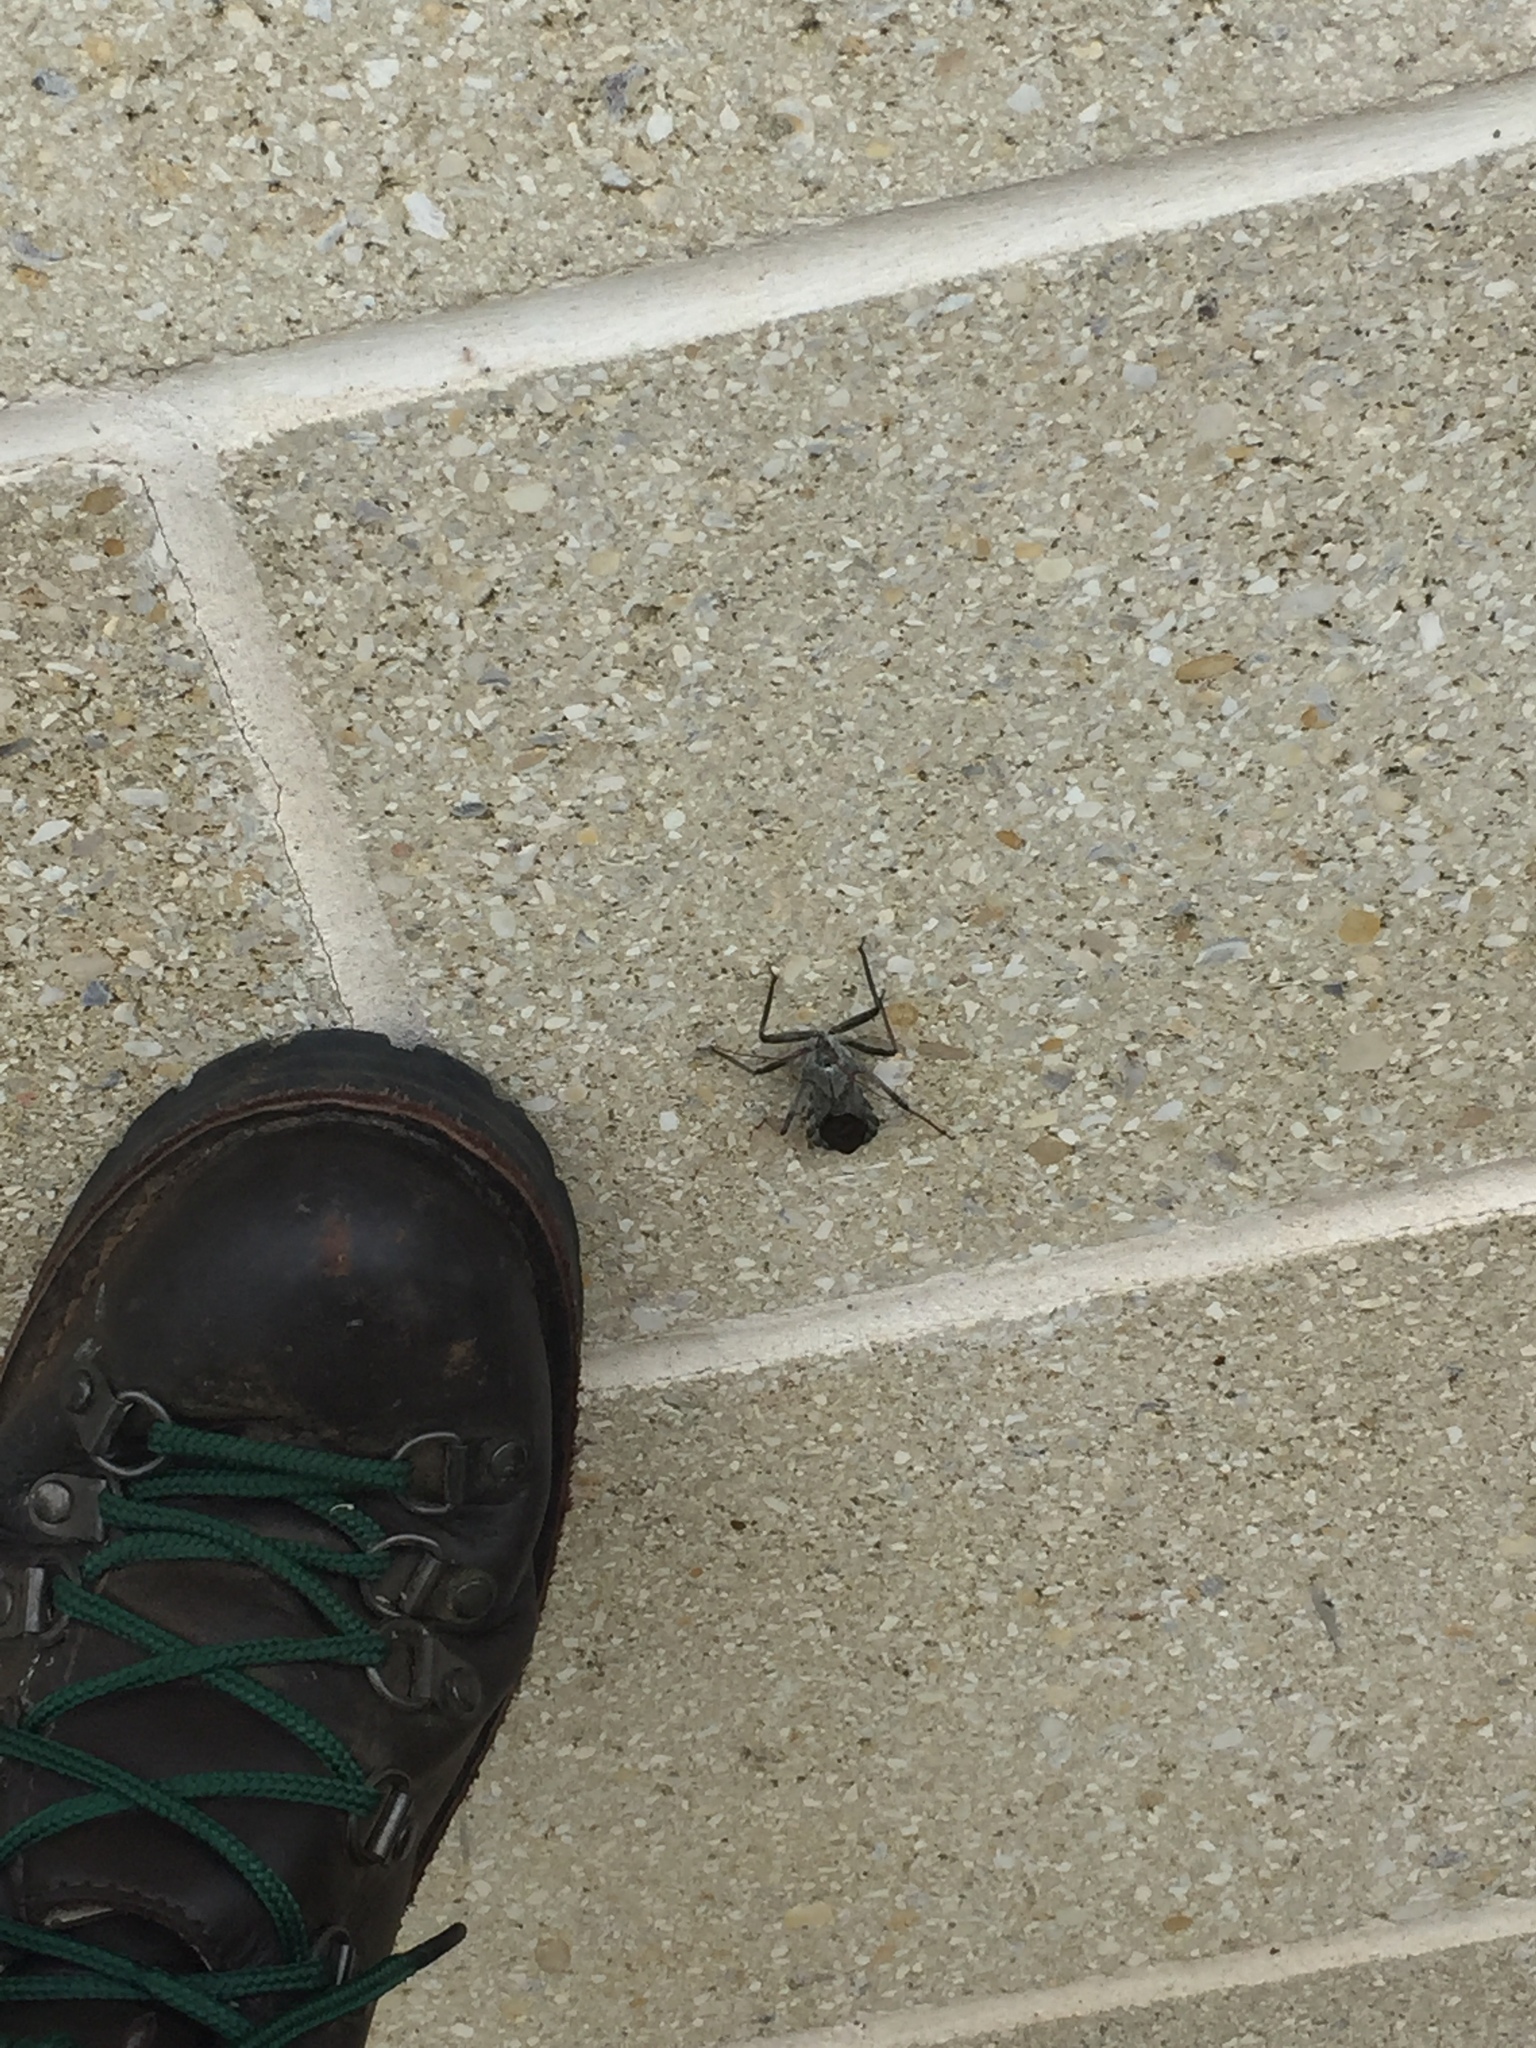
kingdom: Animalia
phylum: Arthropoda
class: Insecta
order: Hemiptera
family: Reduviidae
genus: Arilus
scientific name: Arilus cristatus
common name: North american wheel bug
